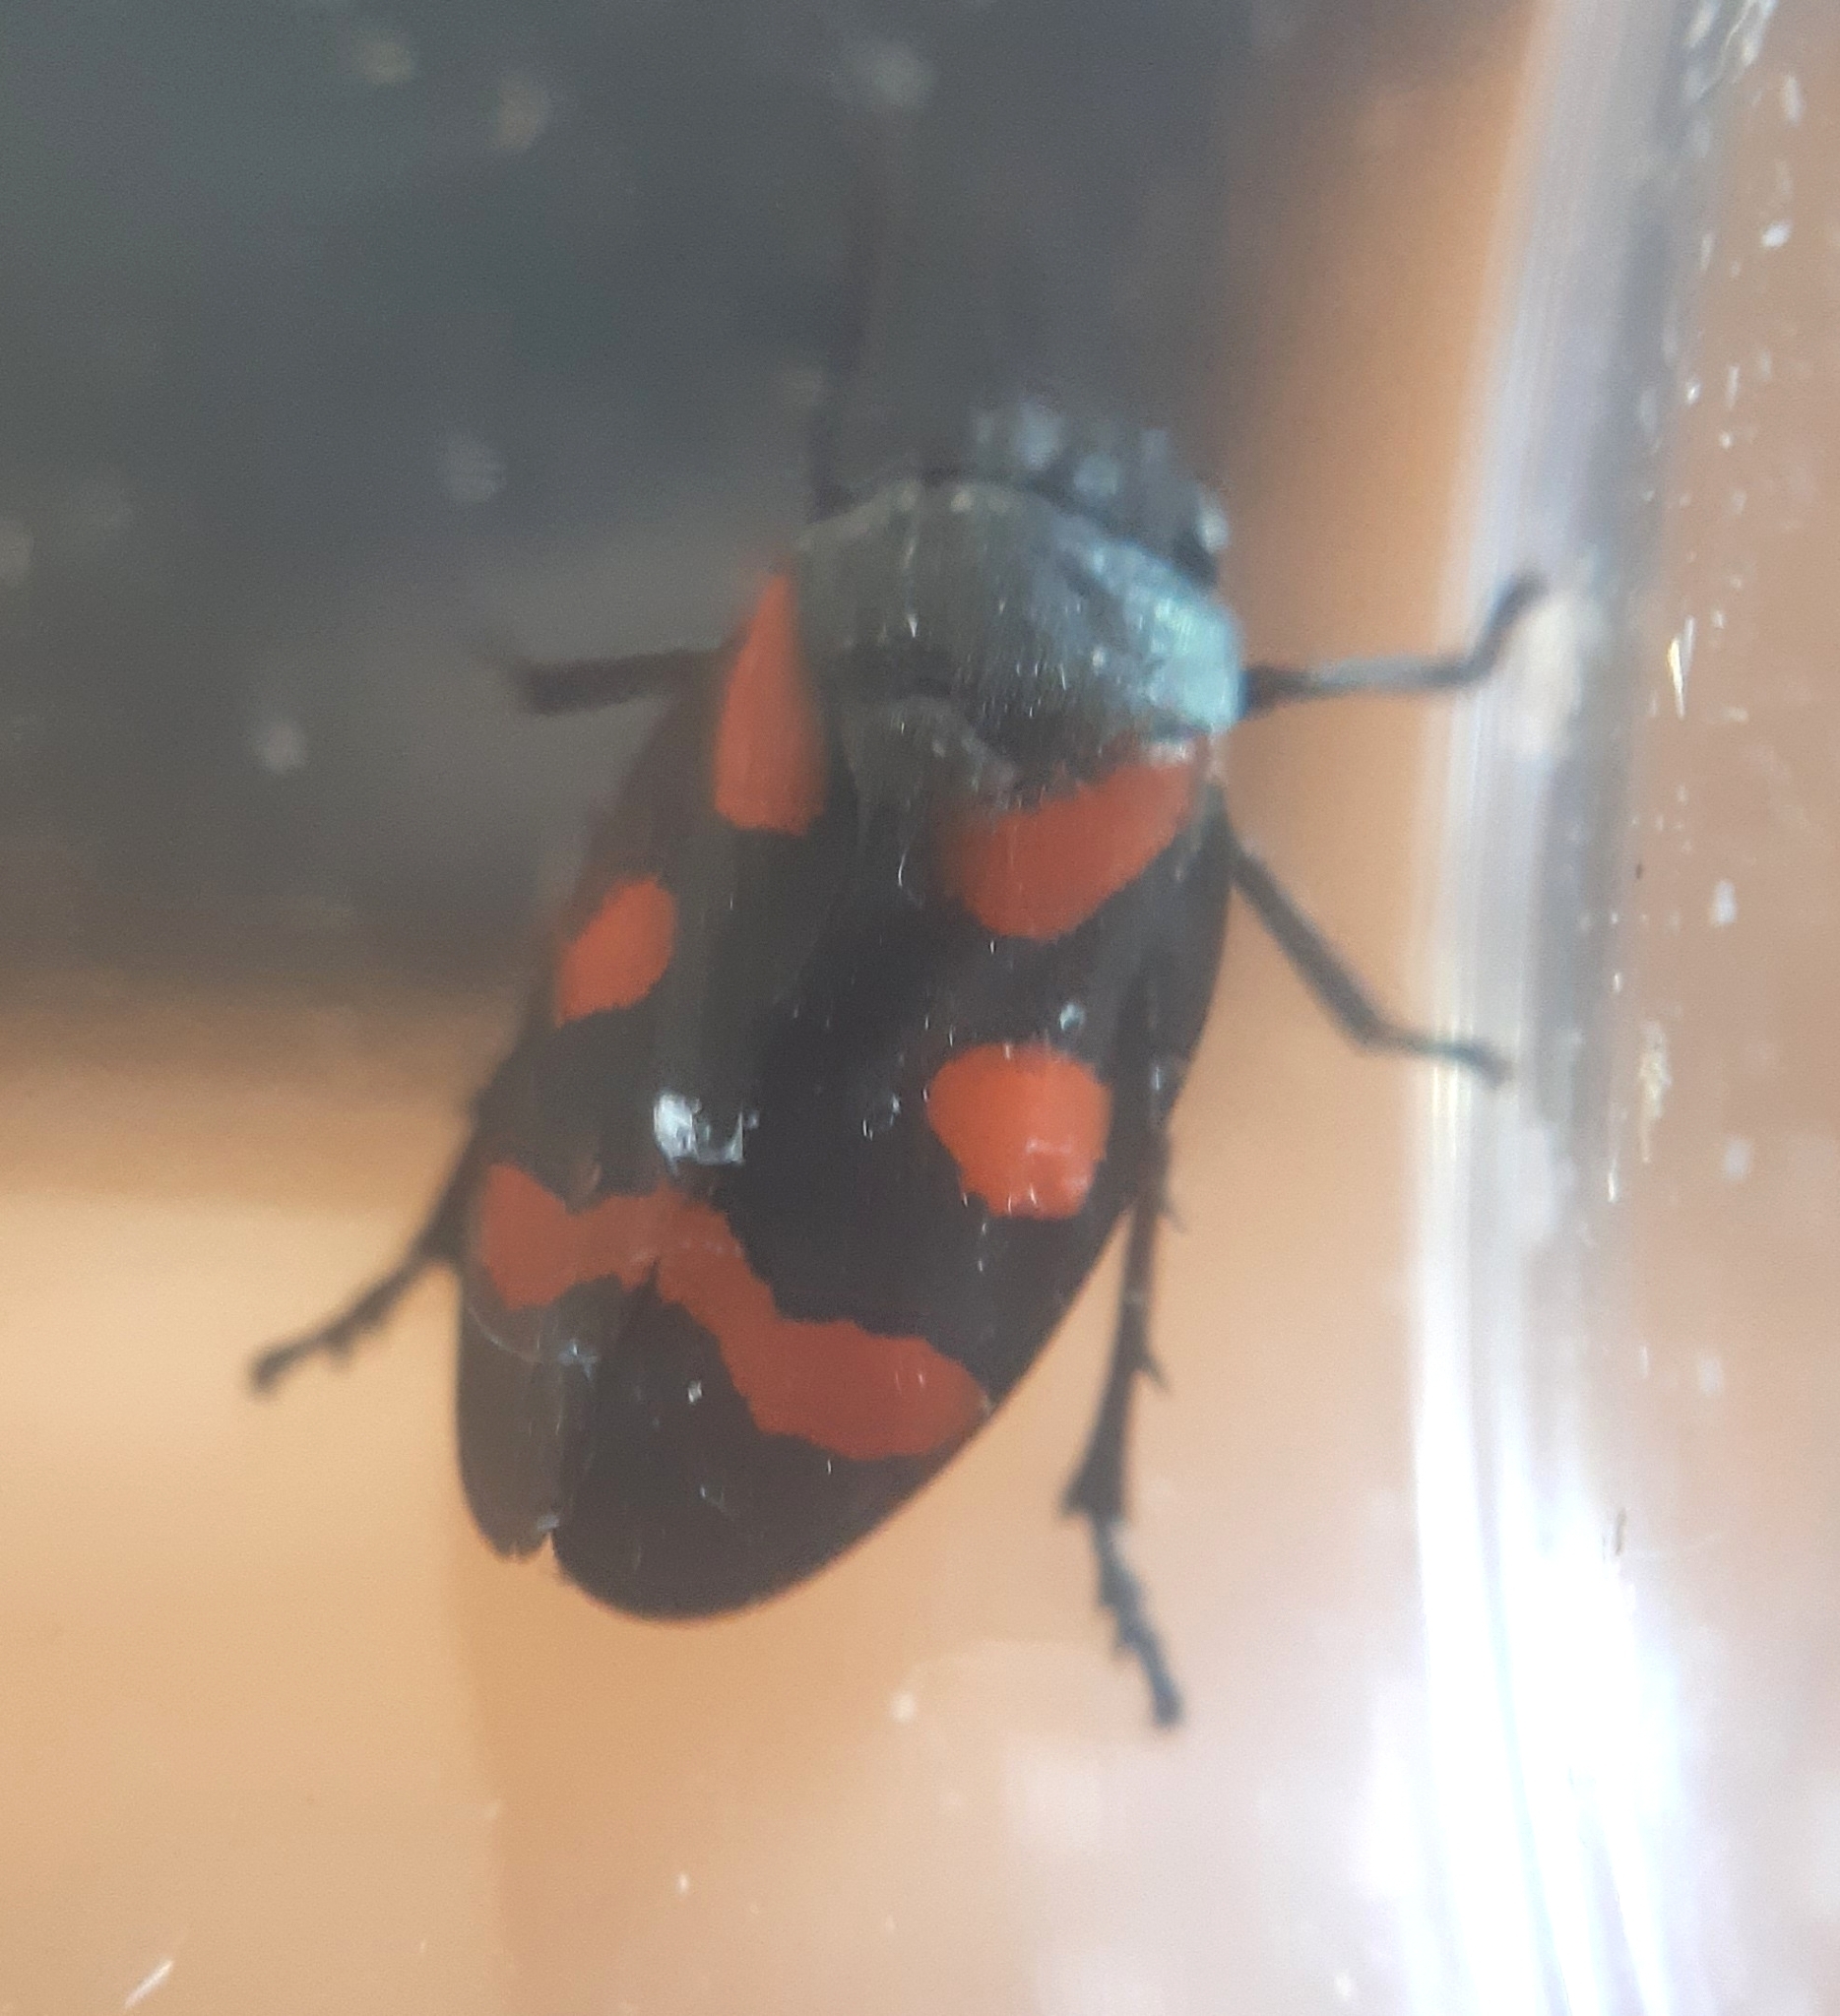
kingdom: Animalia
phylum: Arthropoda
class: Insecta
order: Hemiptera
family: Cercopidae
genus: Cercopis
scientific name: Cercopis sanguinolenta
